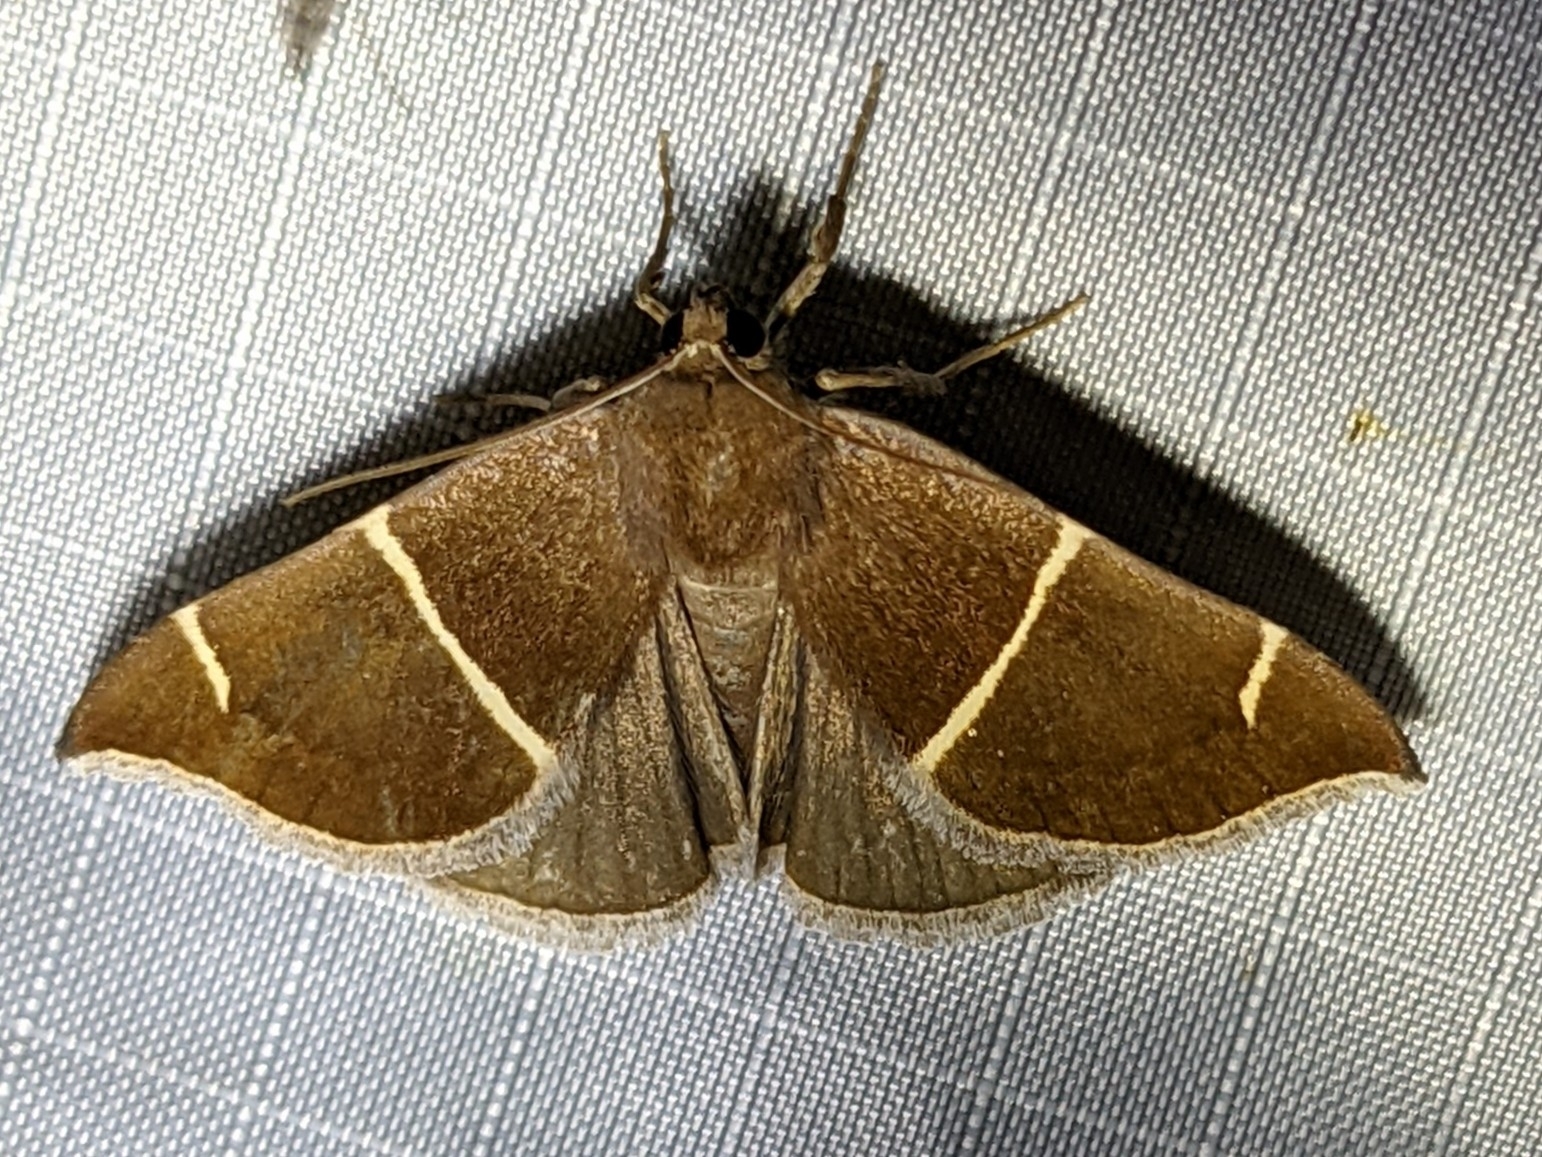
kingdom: Animalia
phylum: Arthropoda
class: Insecta
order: Lepidoptera
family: Erebidae
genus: Argyrostrotis
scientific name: Argyrostrotis anilis
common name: Short-lined chocolate
